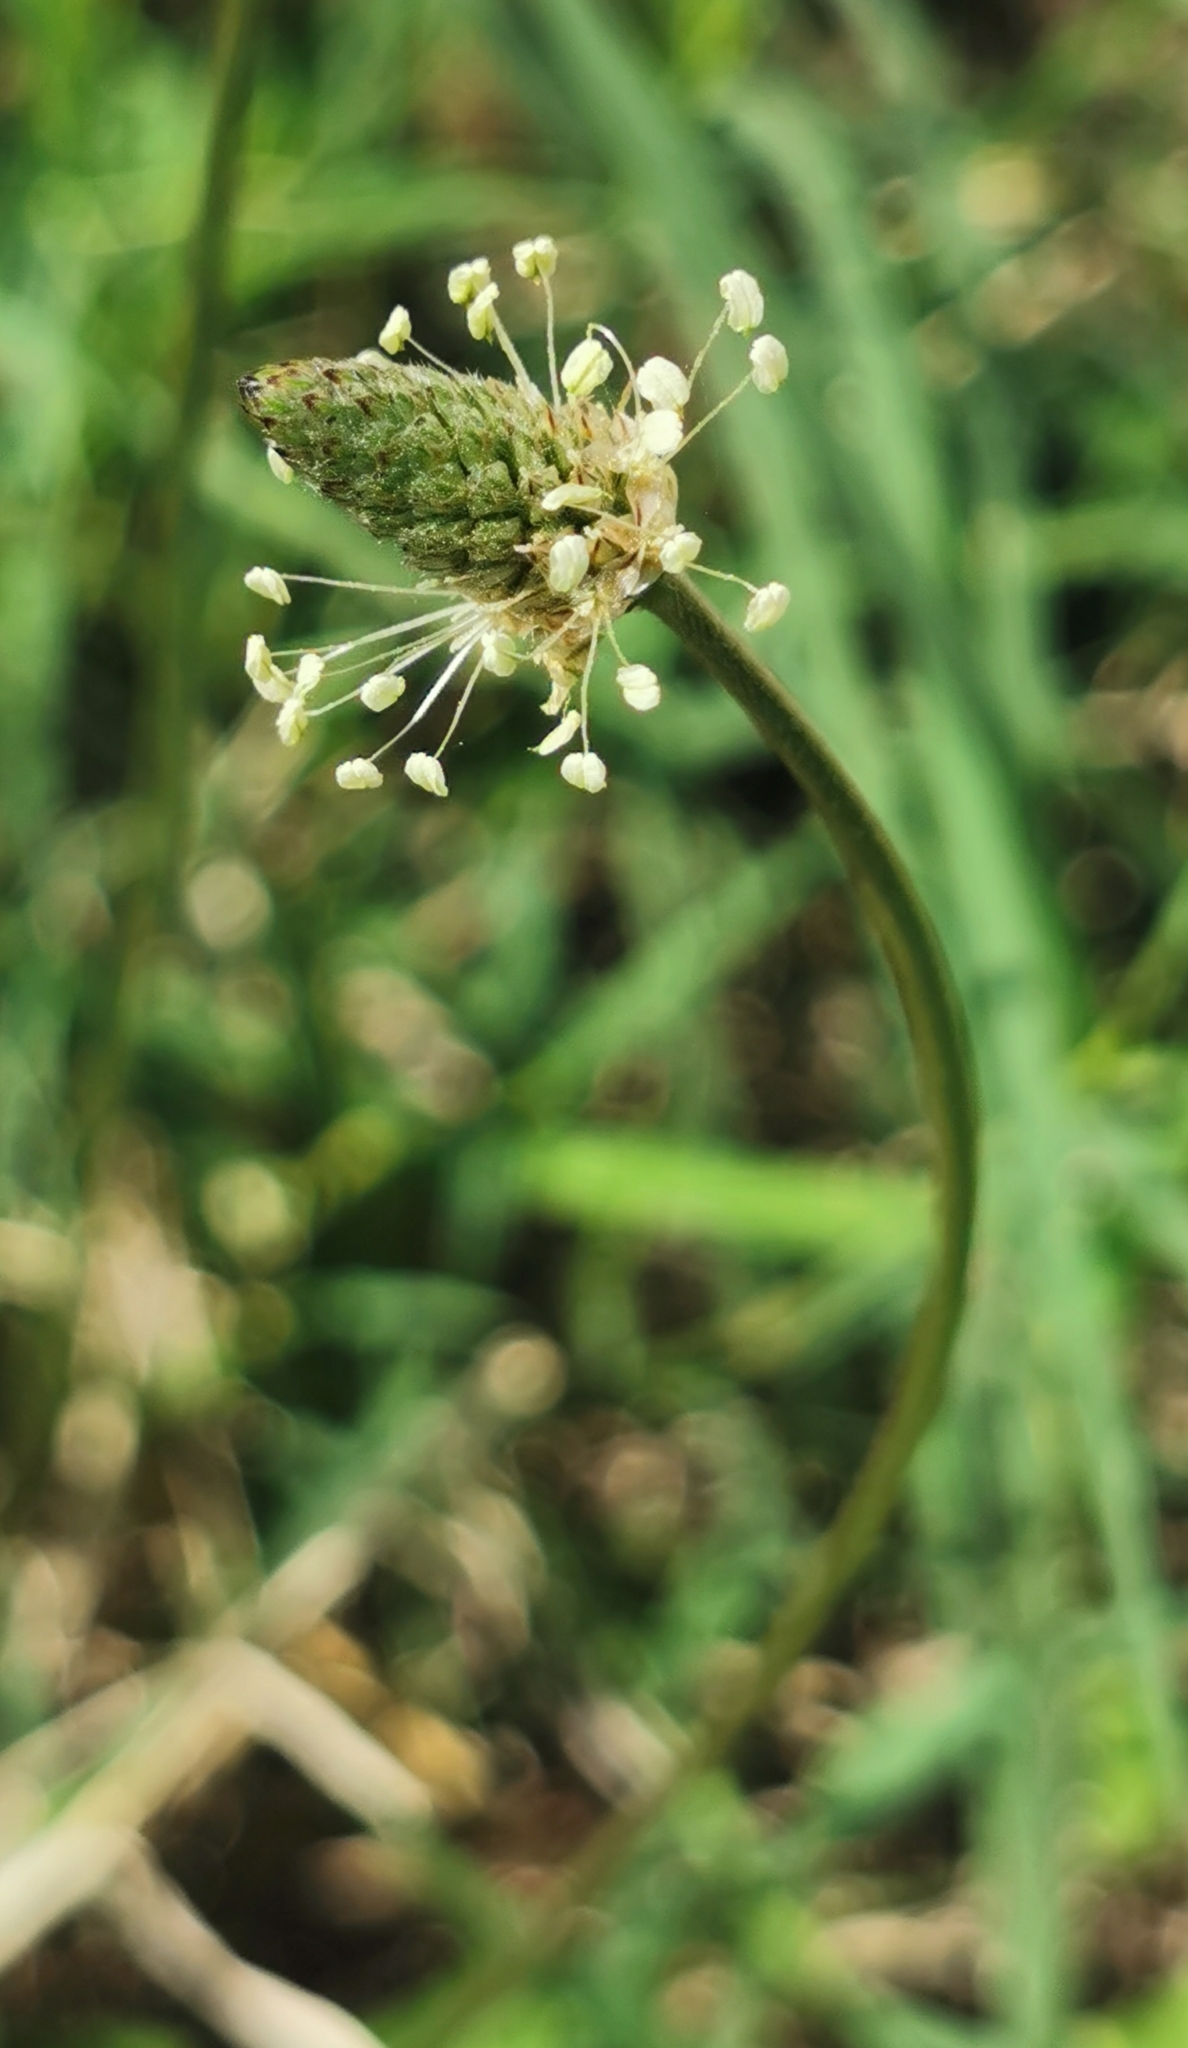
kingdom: Plantae
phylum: Tracheophyta
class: Magnoliopsida
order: Lamiales
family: Plantaginaceae
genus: Plantago
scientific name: Plantago lanceolata
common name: Ribwort plantain
